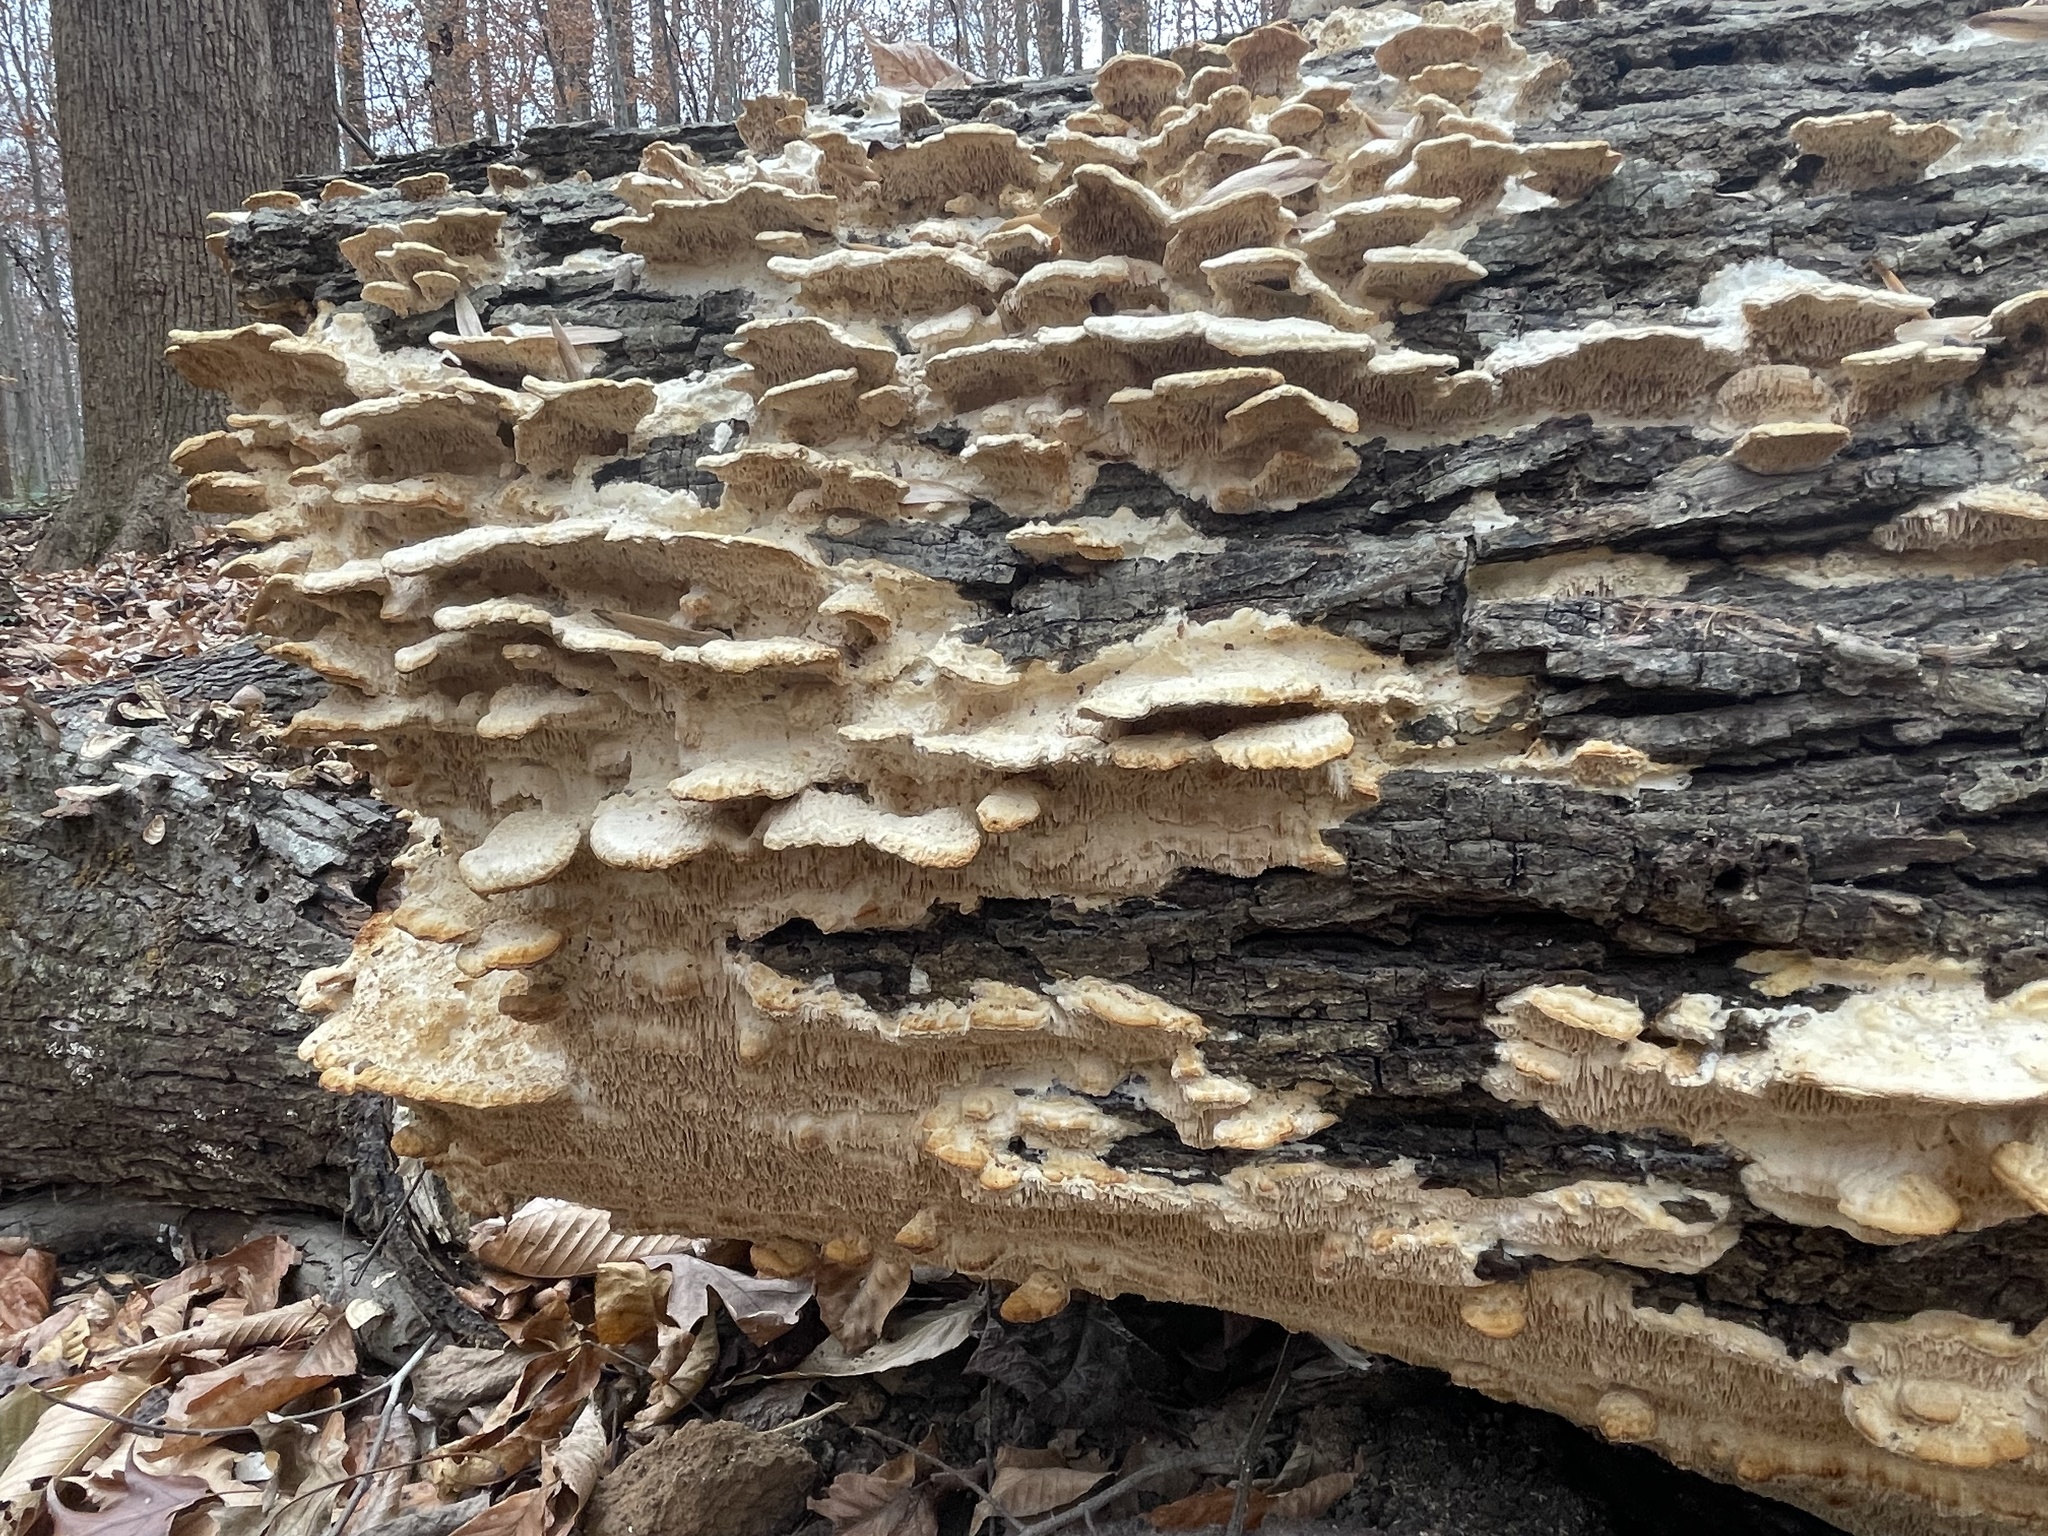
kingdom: Fungi
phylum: Basidiomycota
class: Agaricomycetes
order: Polyporales
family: Meruliaceae
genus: Irpiciporus
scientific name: Irpiciporus pachyodon
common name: Marshmallow polypore
